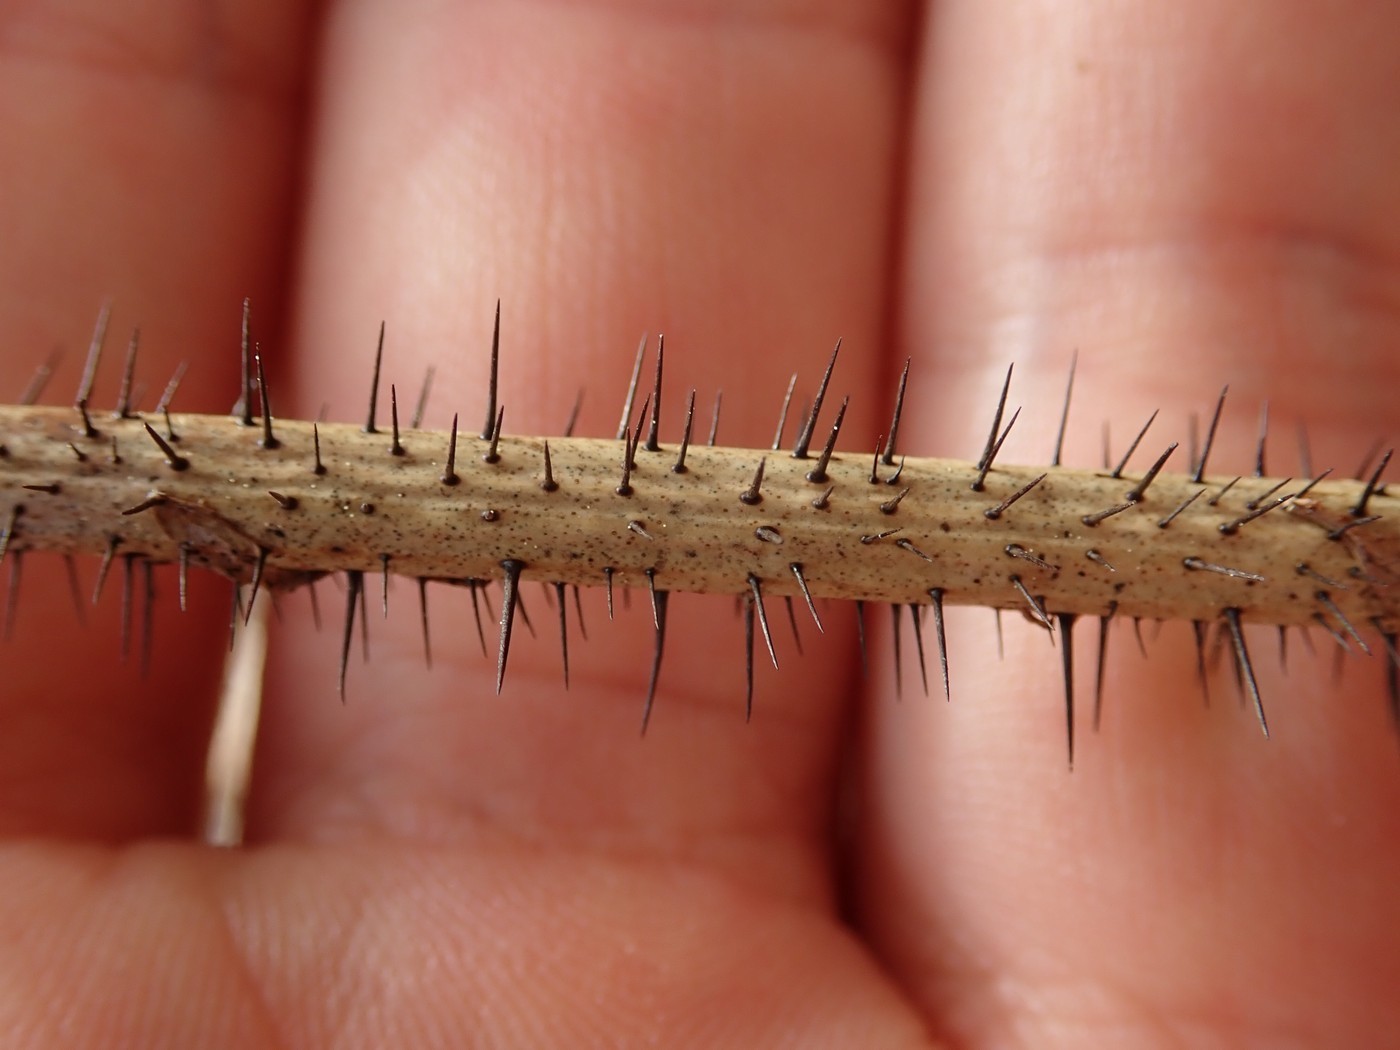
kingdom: Plantae
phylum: Tracheophyta
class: Liliopsida
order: Liliales
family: Smilacaceae
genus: Smilax
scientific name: Smilax tamnoides
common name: Hellfetter
